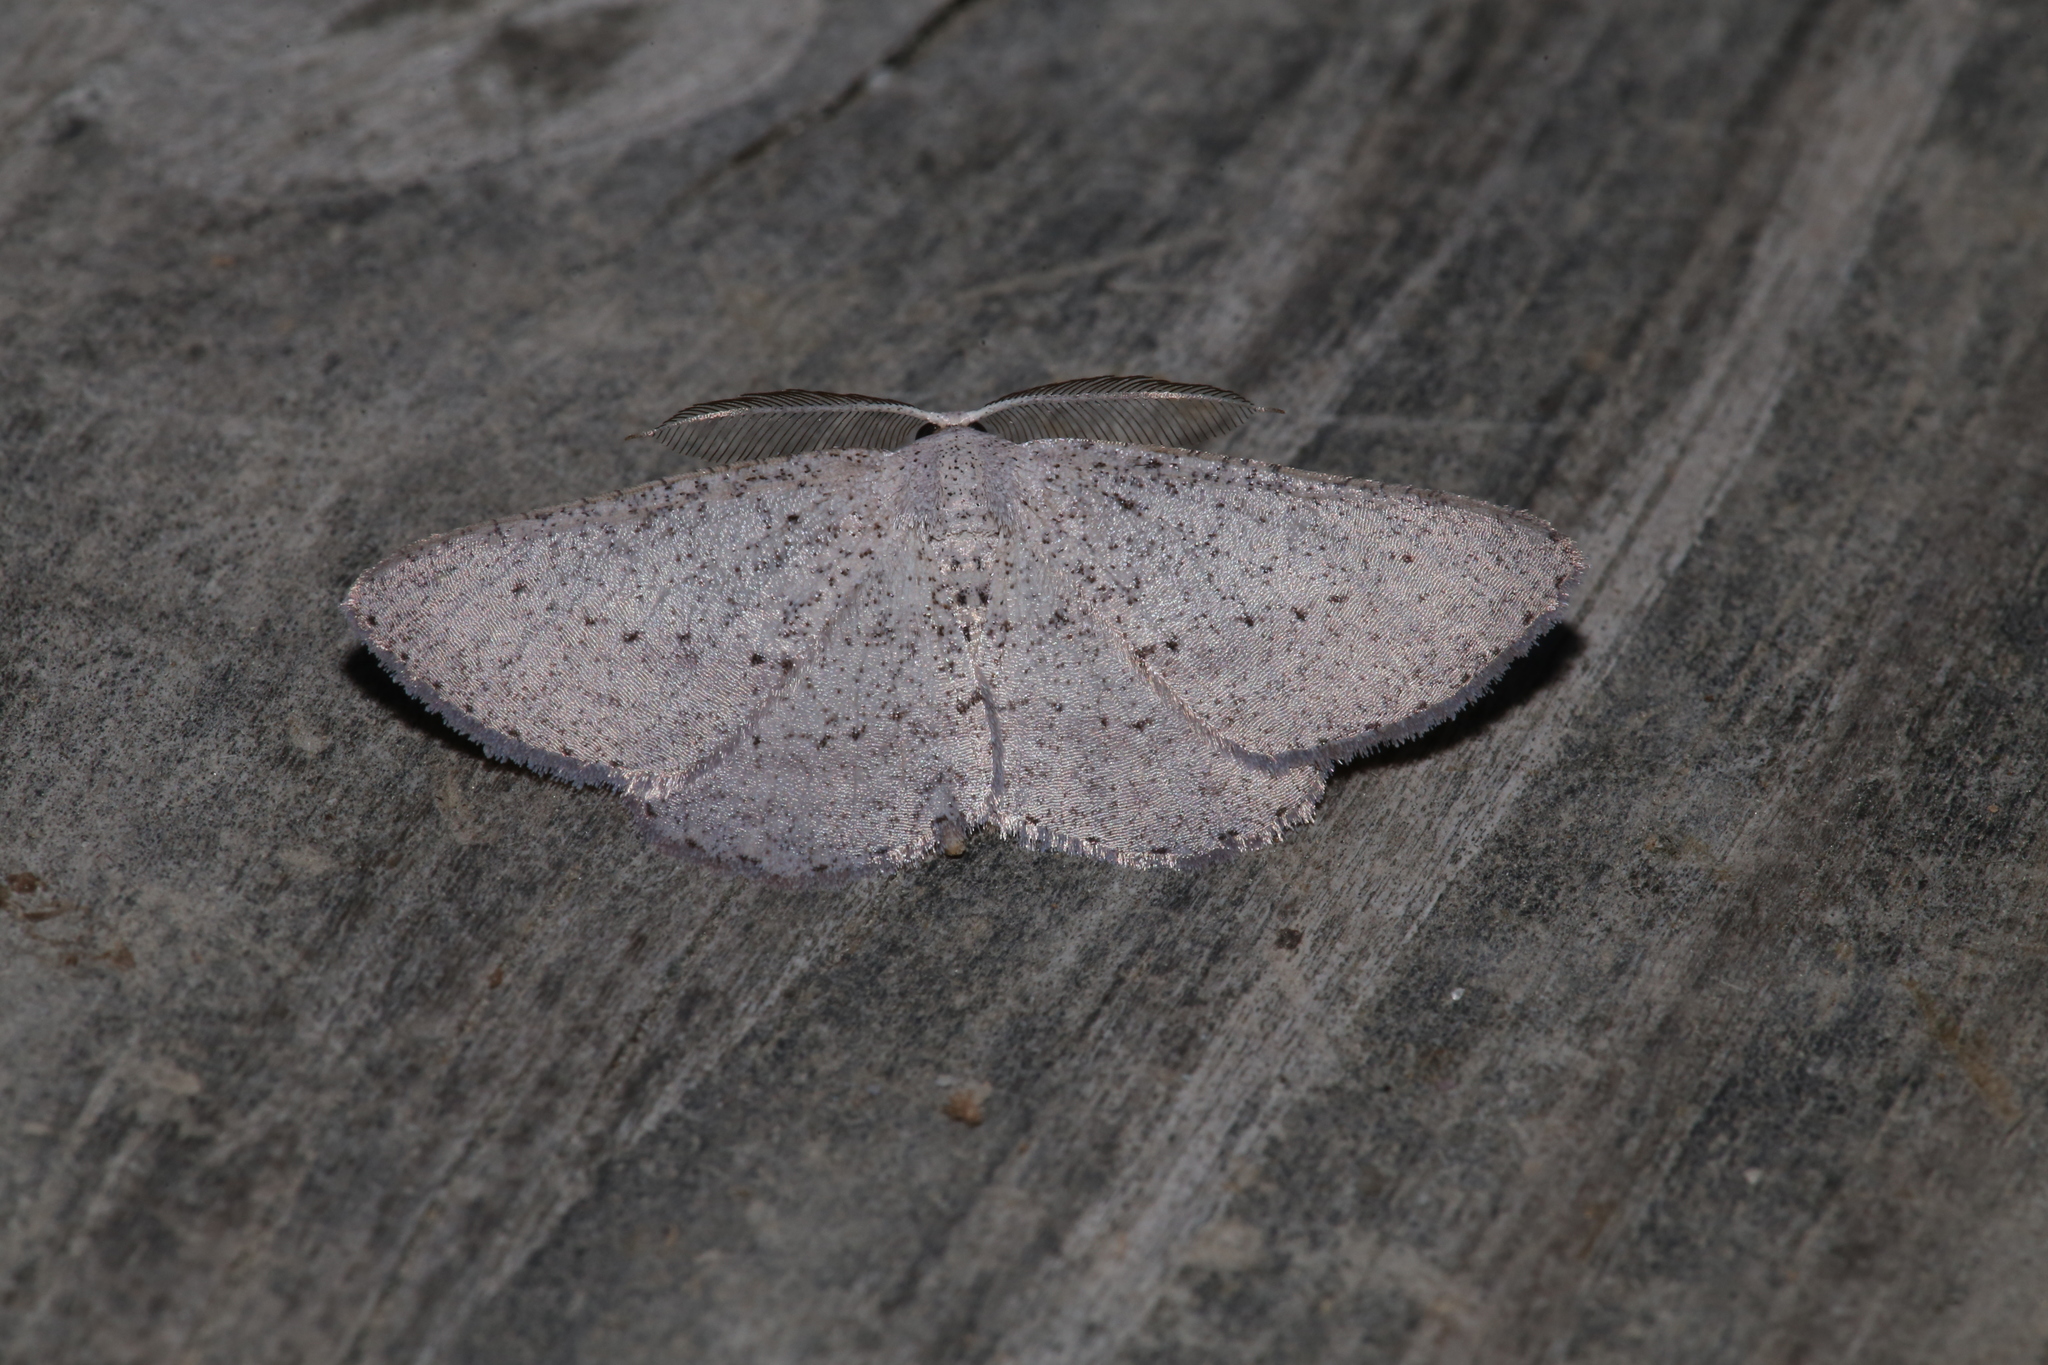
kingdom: Animalia
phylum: Arthropoda
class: Insecta
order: Lepidoptera
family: Geometridae
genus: Glena
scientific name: Glena cognataria
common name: Blueberry gray
